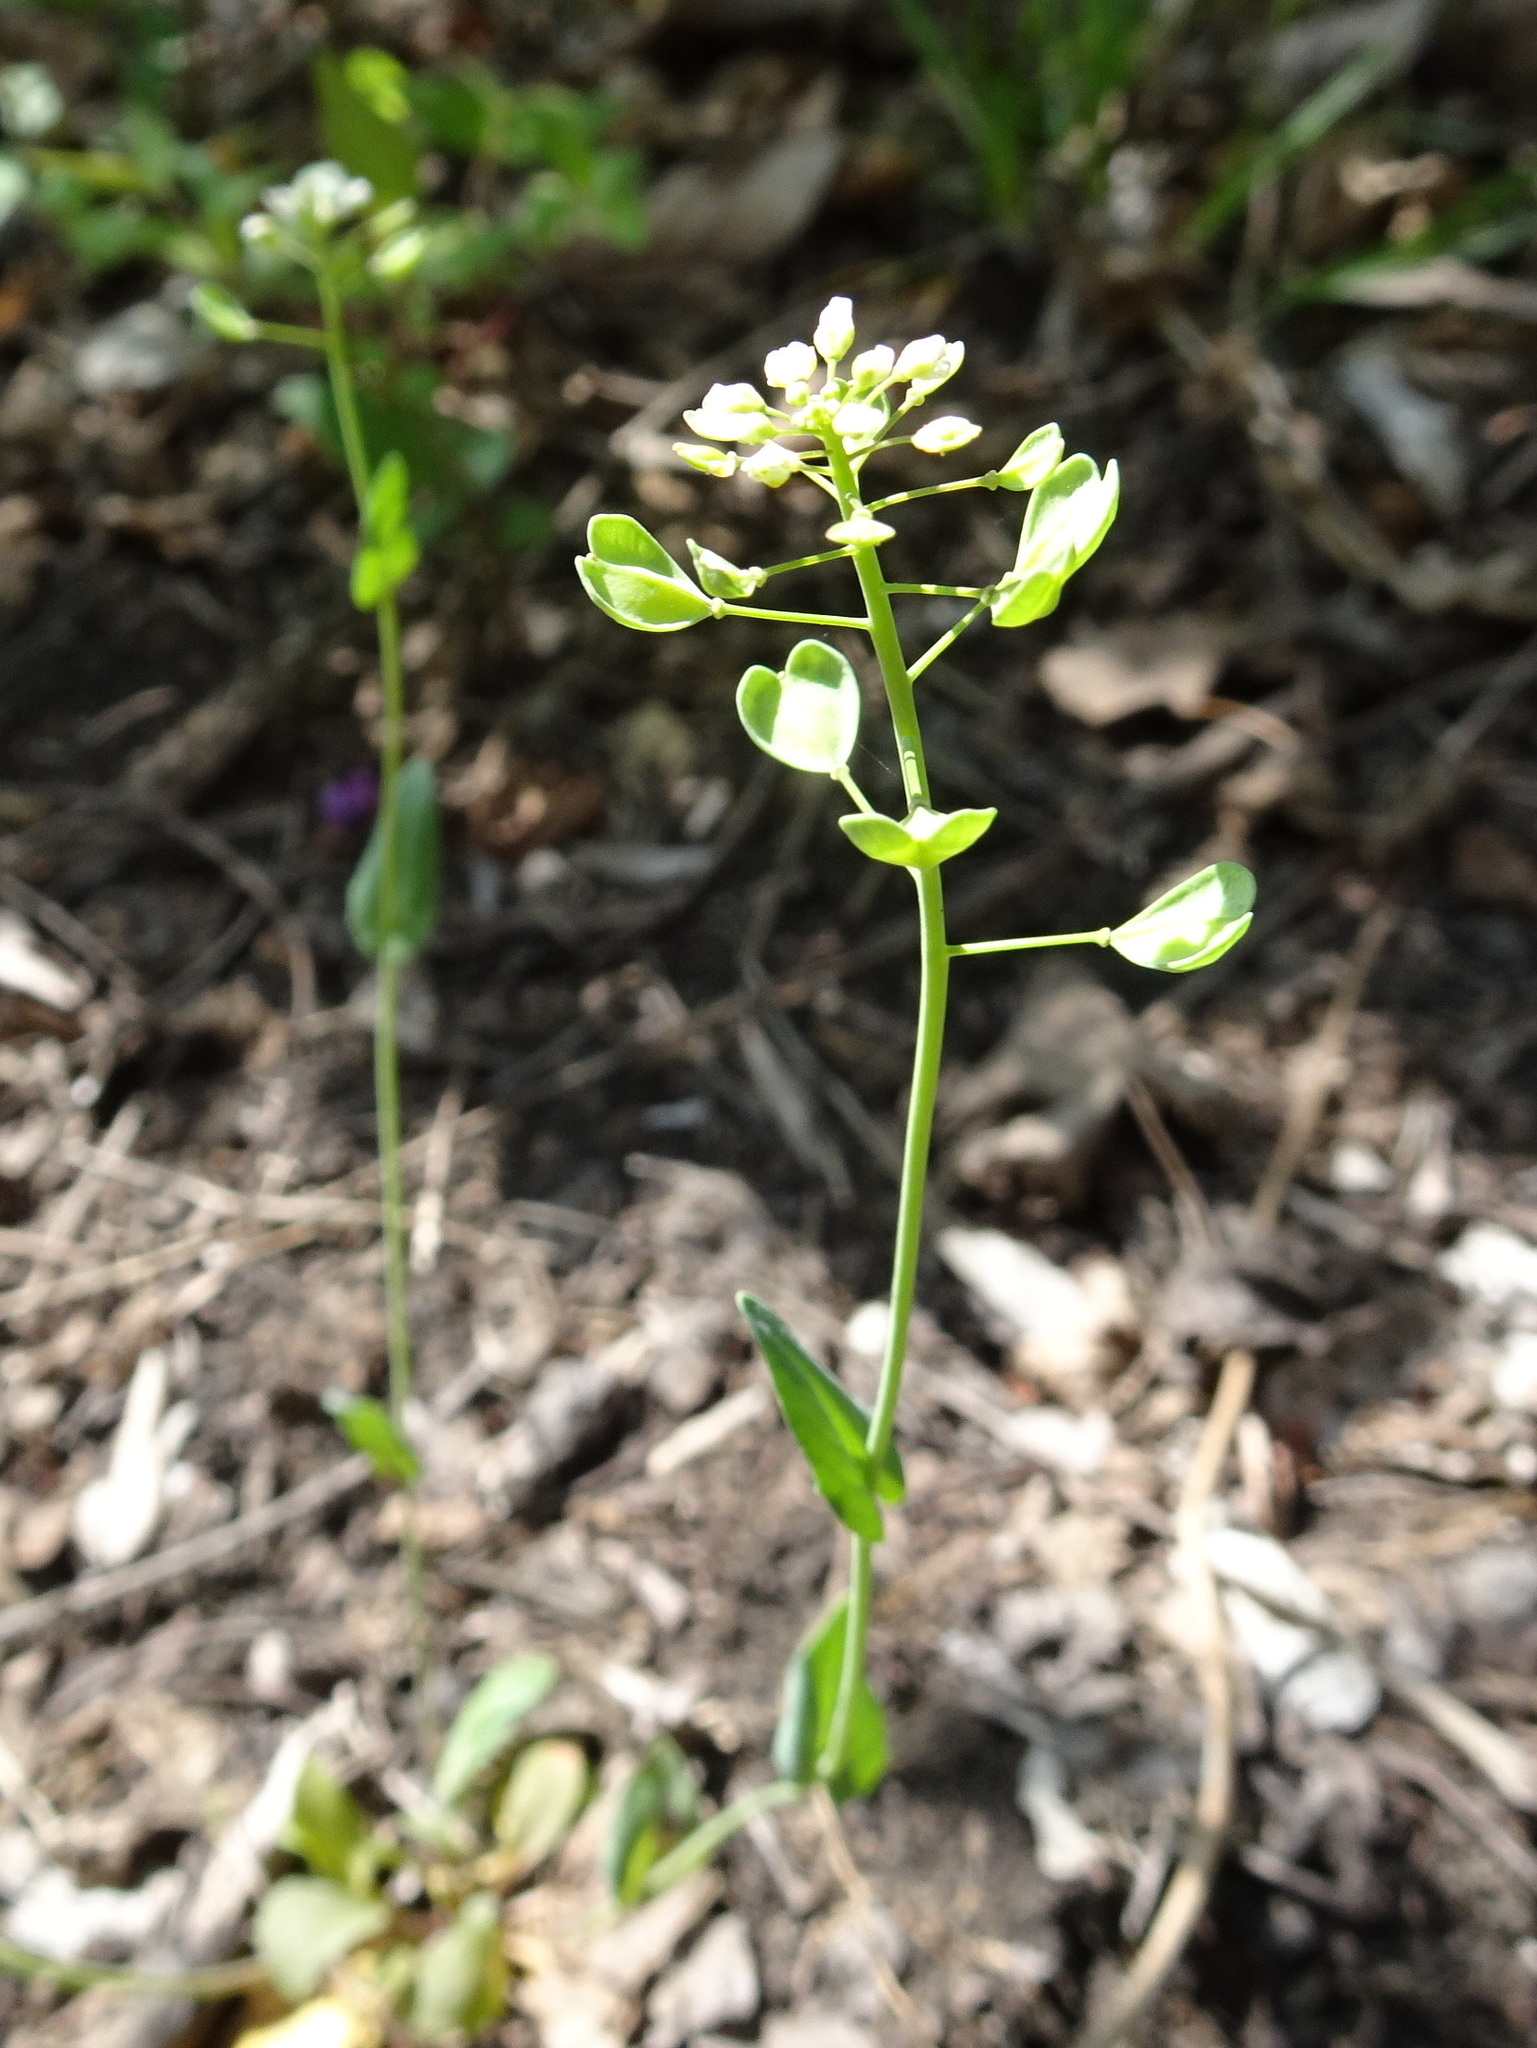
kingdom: Plantae
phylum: Tracheophyta
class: Magnoliopsida
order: Brassicales
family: Brassicaceae
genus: Noccaea
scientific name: Noccaea perfoliata
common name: Perfoliate pennycress
